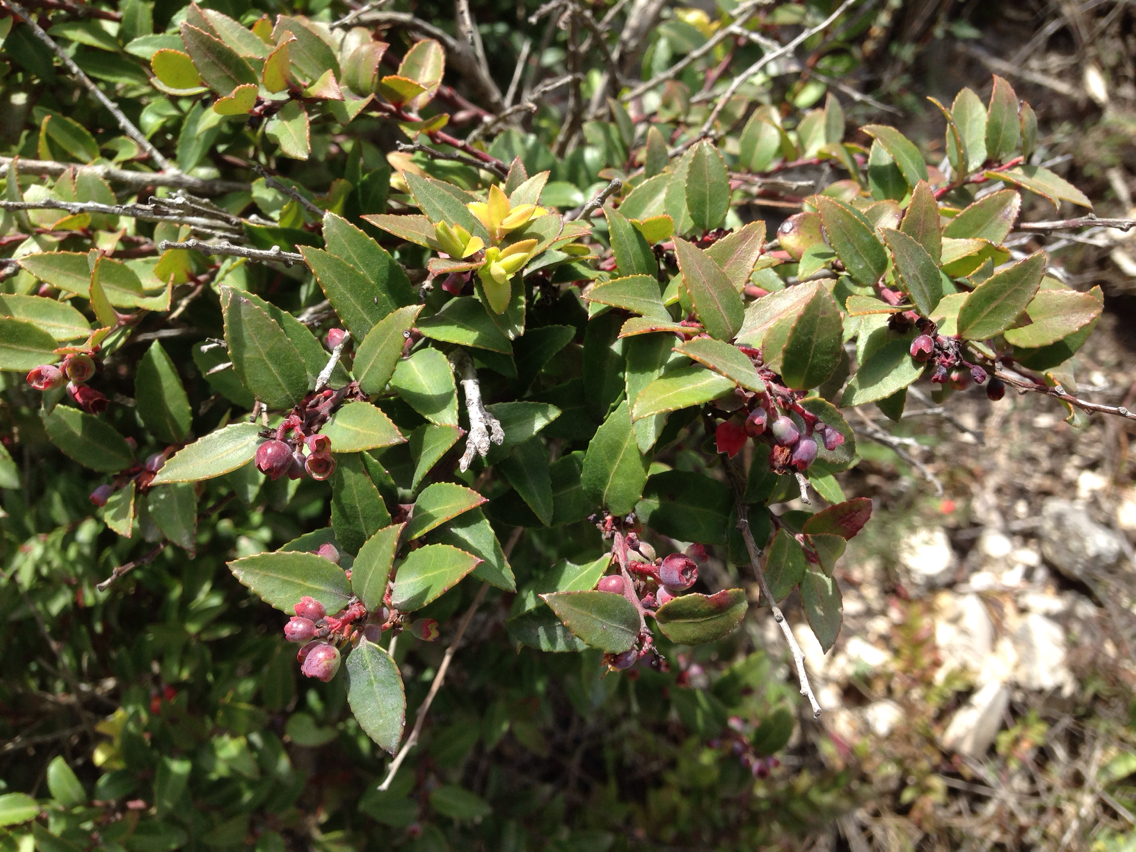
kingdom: Plantae
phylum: Tracheophyta
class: Magnoliopsida
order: Ericales
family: Ericaceae
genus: Vaccinium
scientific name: Vaccinium ovatum
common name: California-huckleberry
